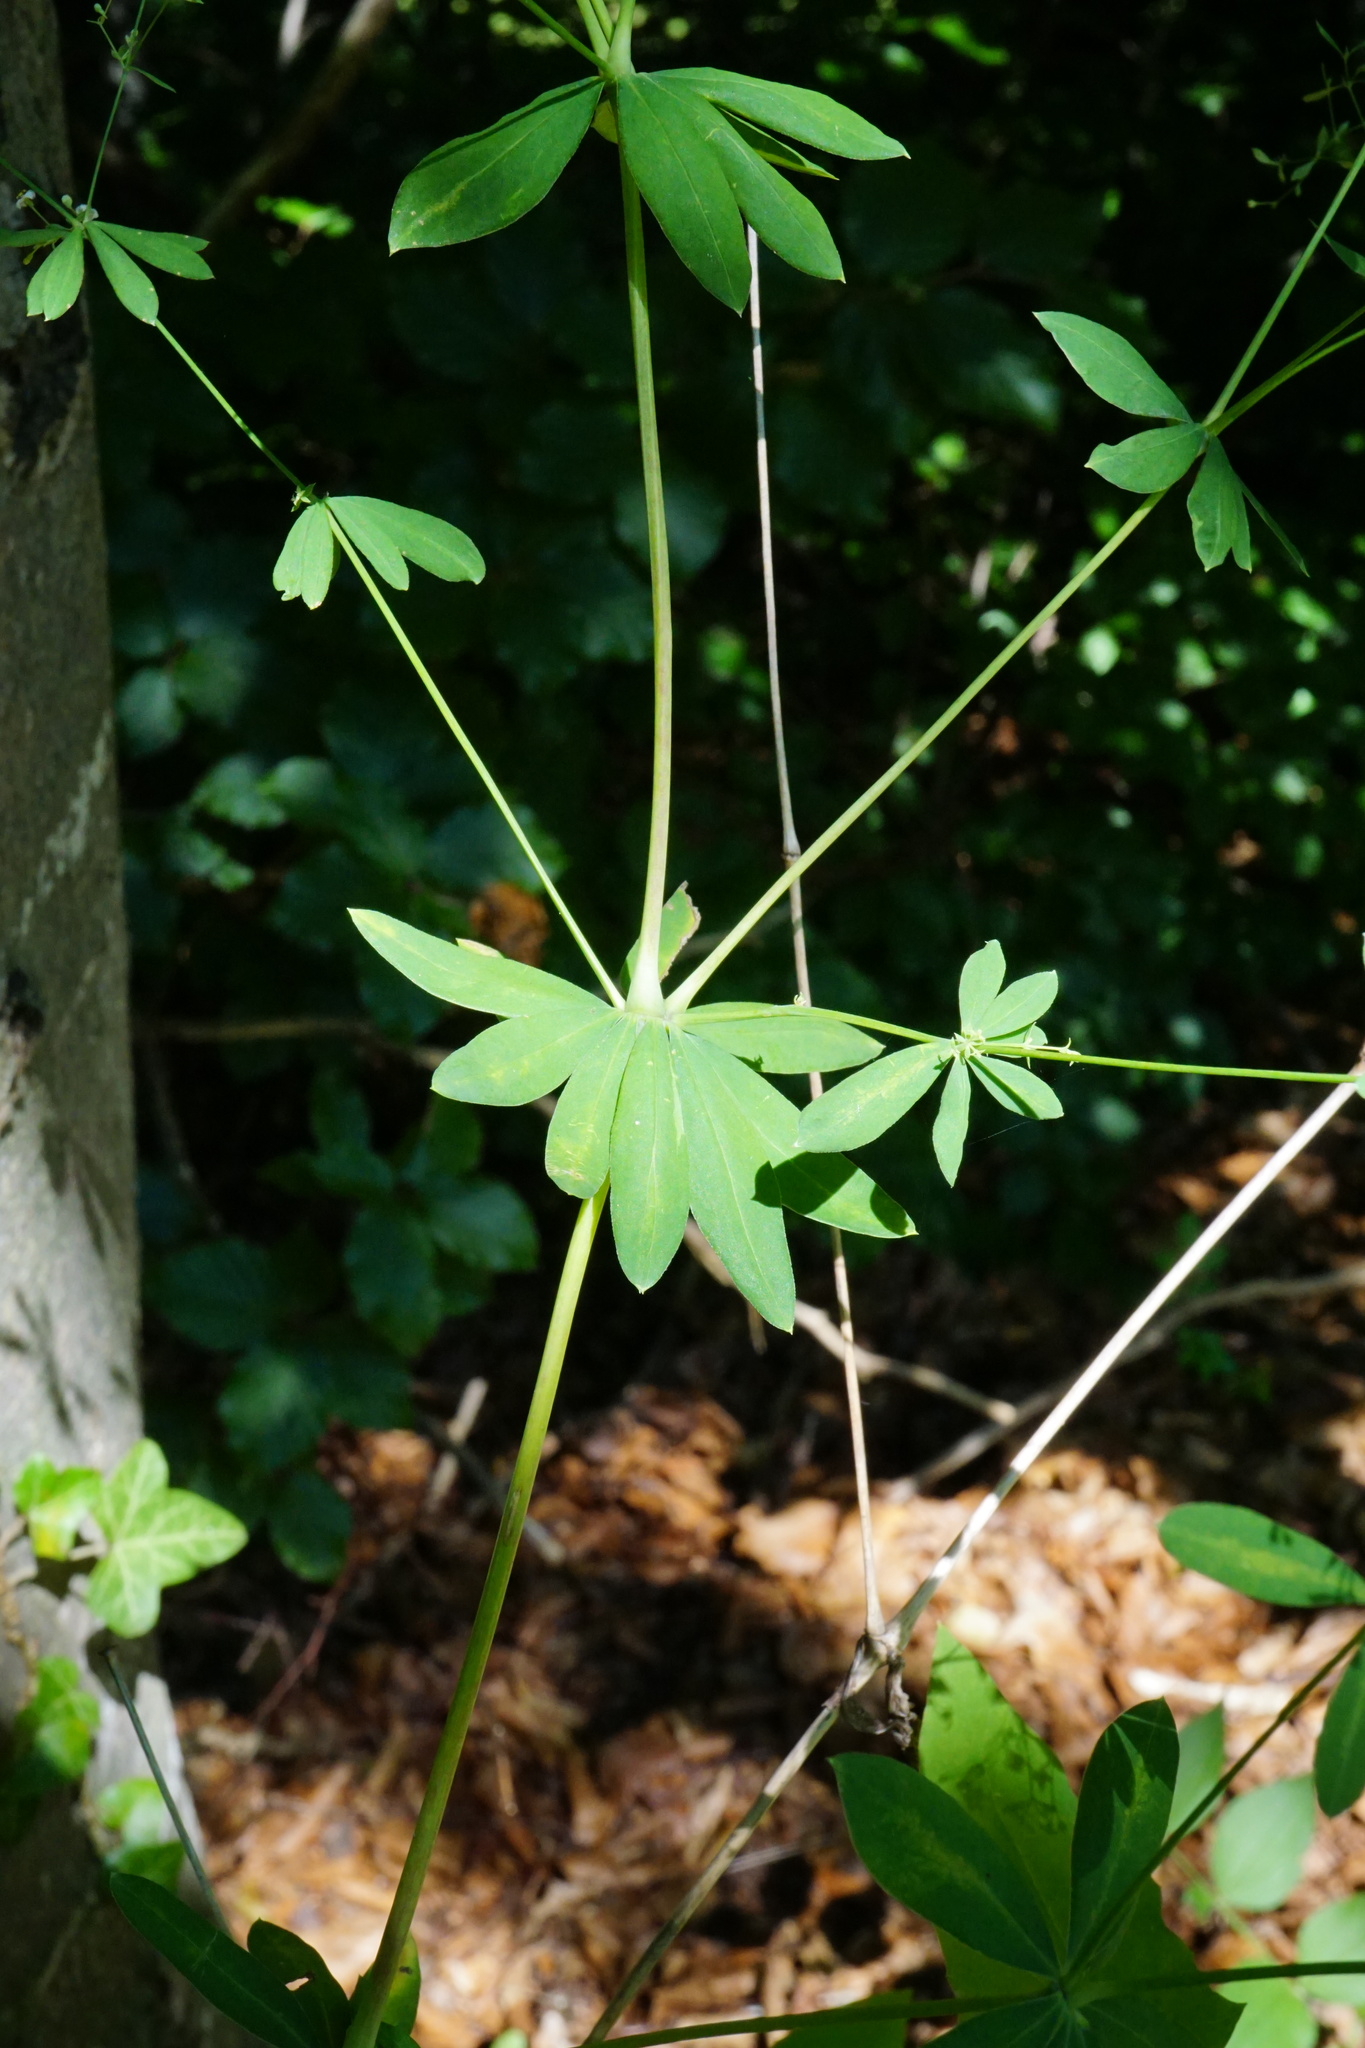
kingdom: Plantae
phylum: Tracheophyta
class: Magnoliopsida
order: Gentianales
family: Rubiaceae
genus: Galium
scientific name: Galium sylvaticum
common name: Wood bedstraw
